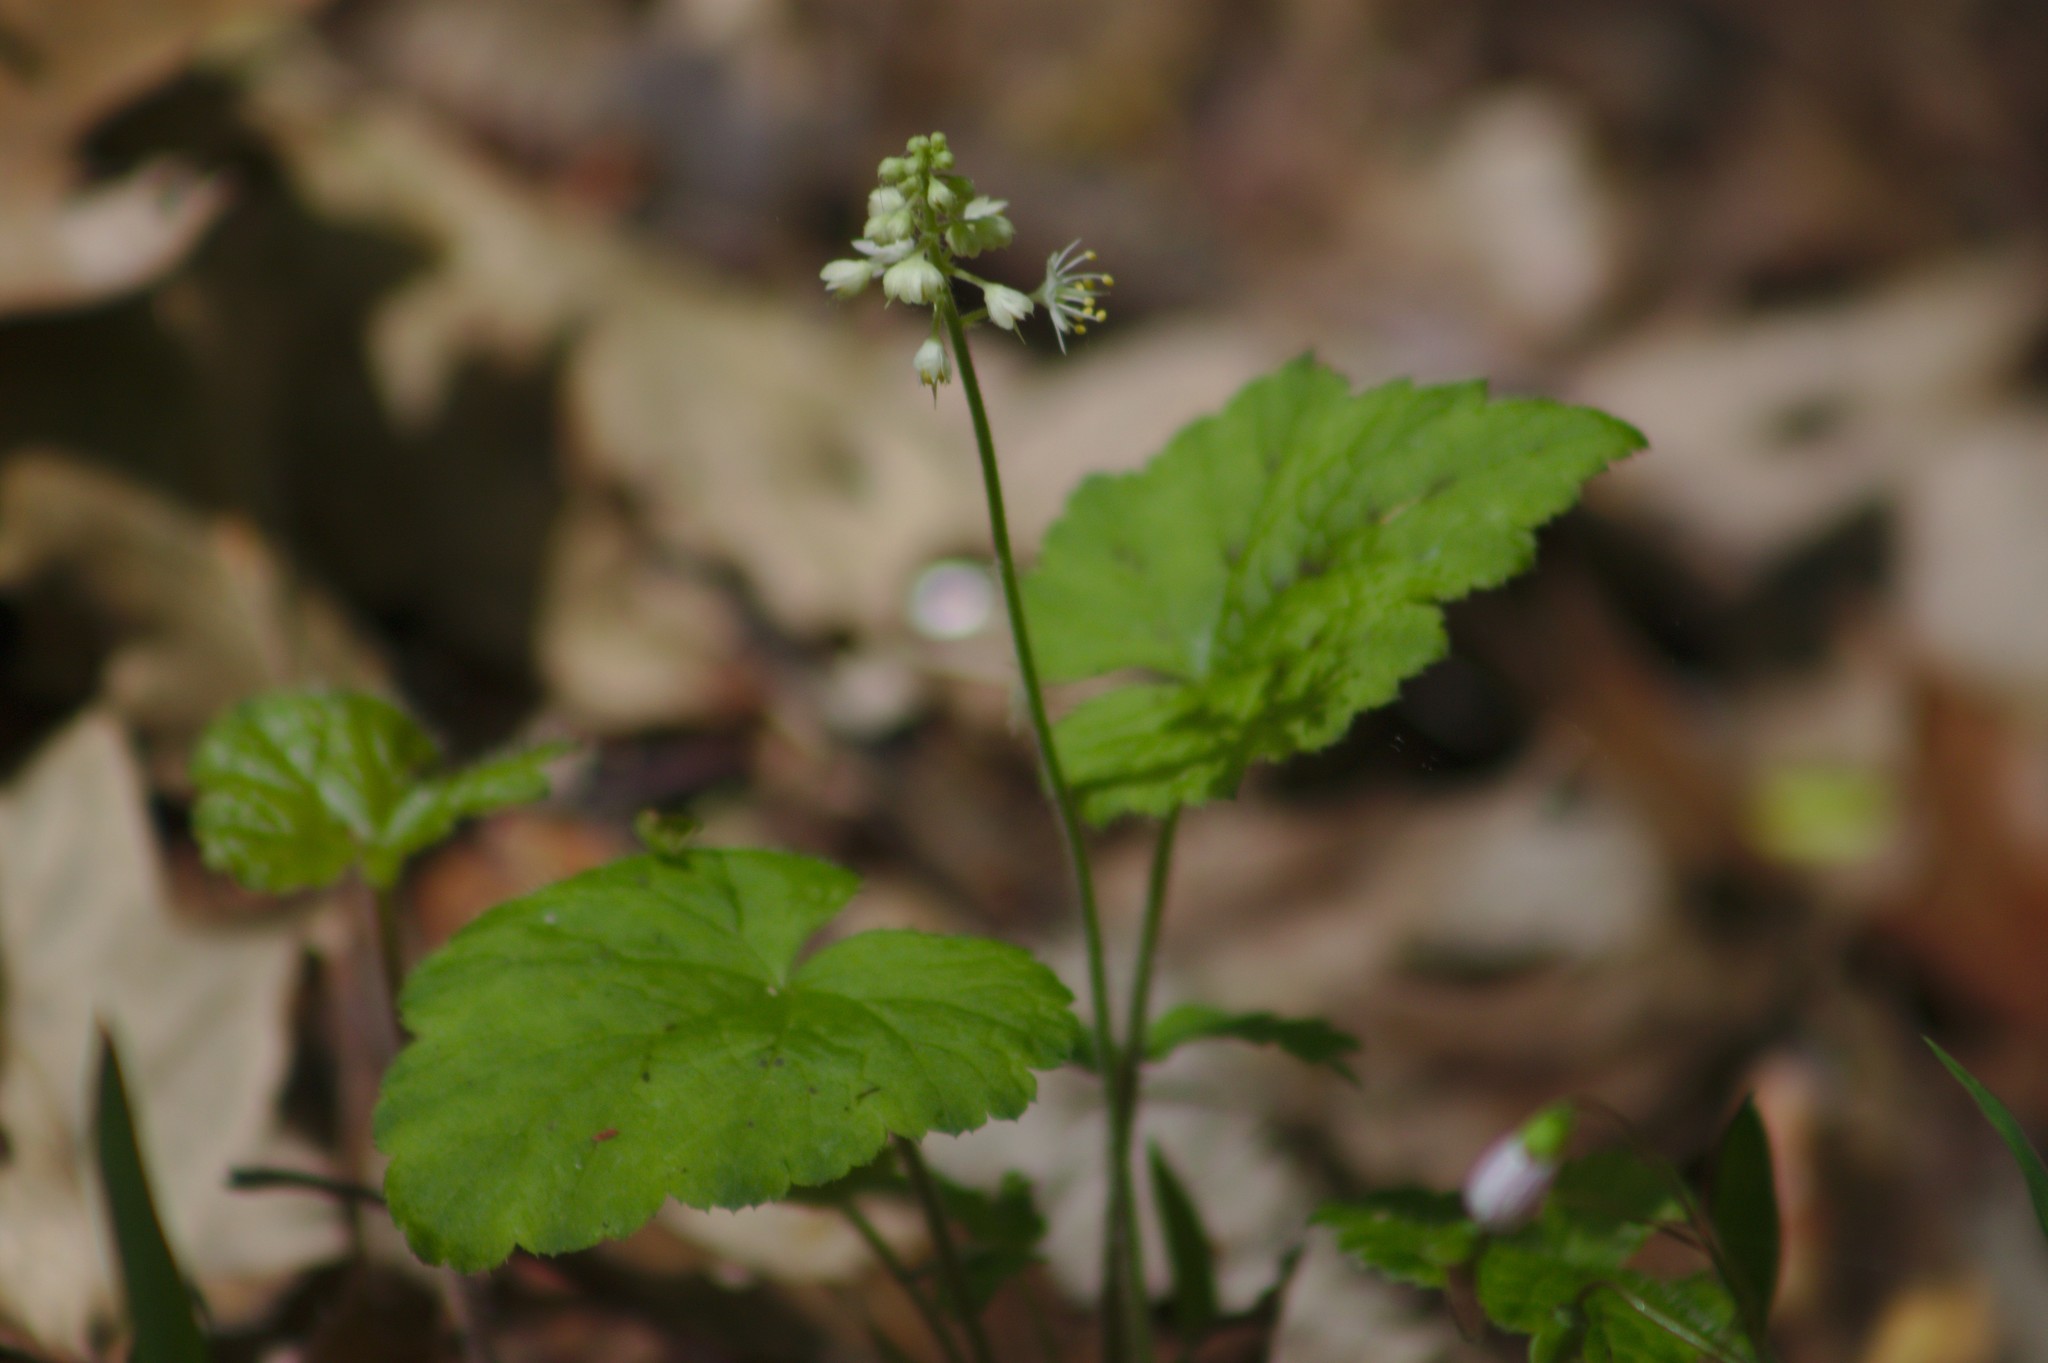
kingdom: Plantae
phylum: Tracheophyta
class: Magnoliopsida
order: Saxifragales
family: Saxifragaceae
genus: Tiarella
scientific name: Tiarella stolonifera
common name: Stoloniferous foamflower
